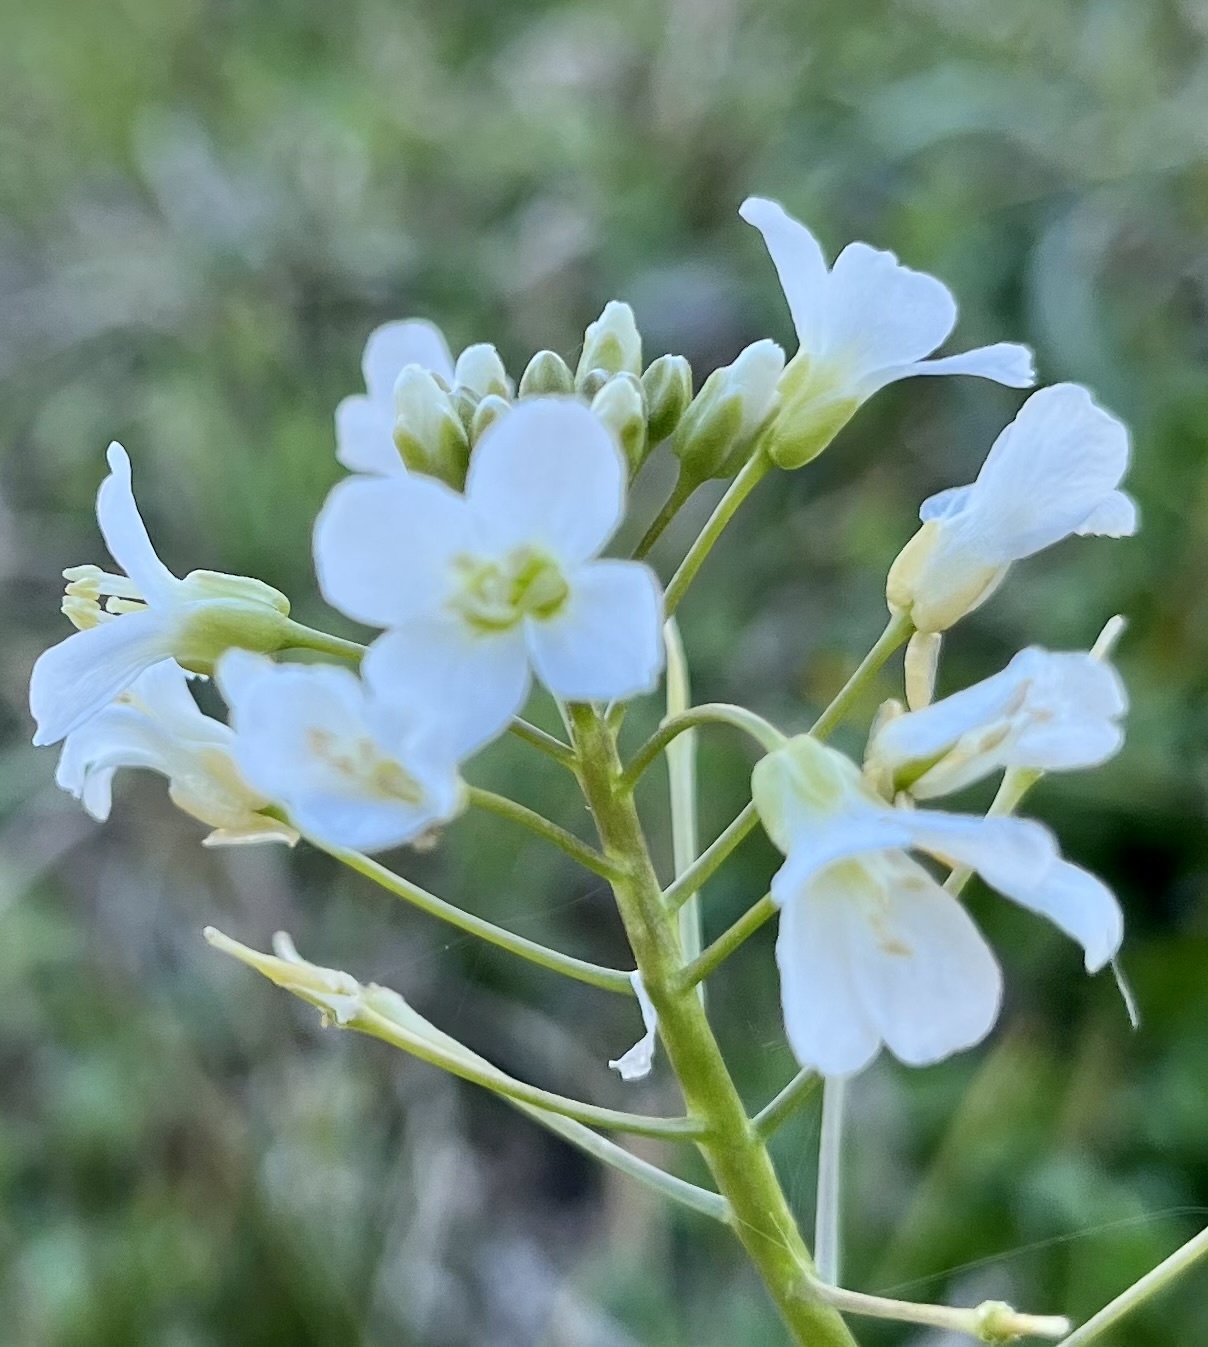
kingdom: Plantae
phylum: Tracheophyta
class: Magnoliopsida
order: Brassicales
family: Brassicaceae
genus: Cardamine
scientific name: Cardamine bulbosa
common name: Spring cress
